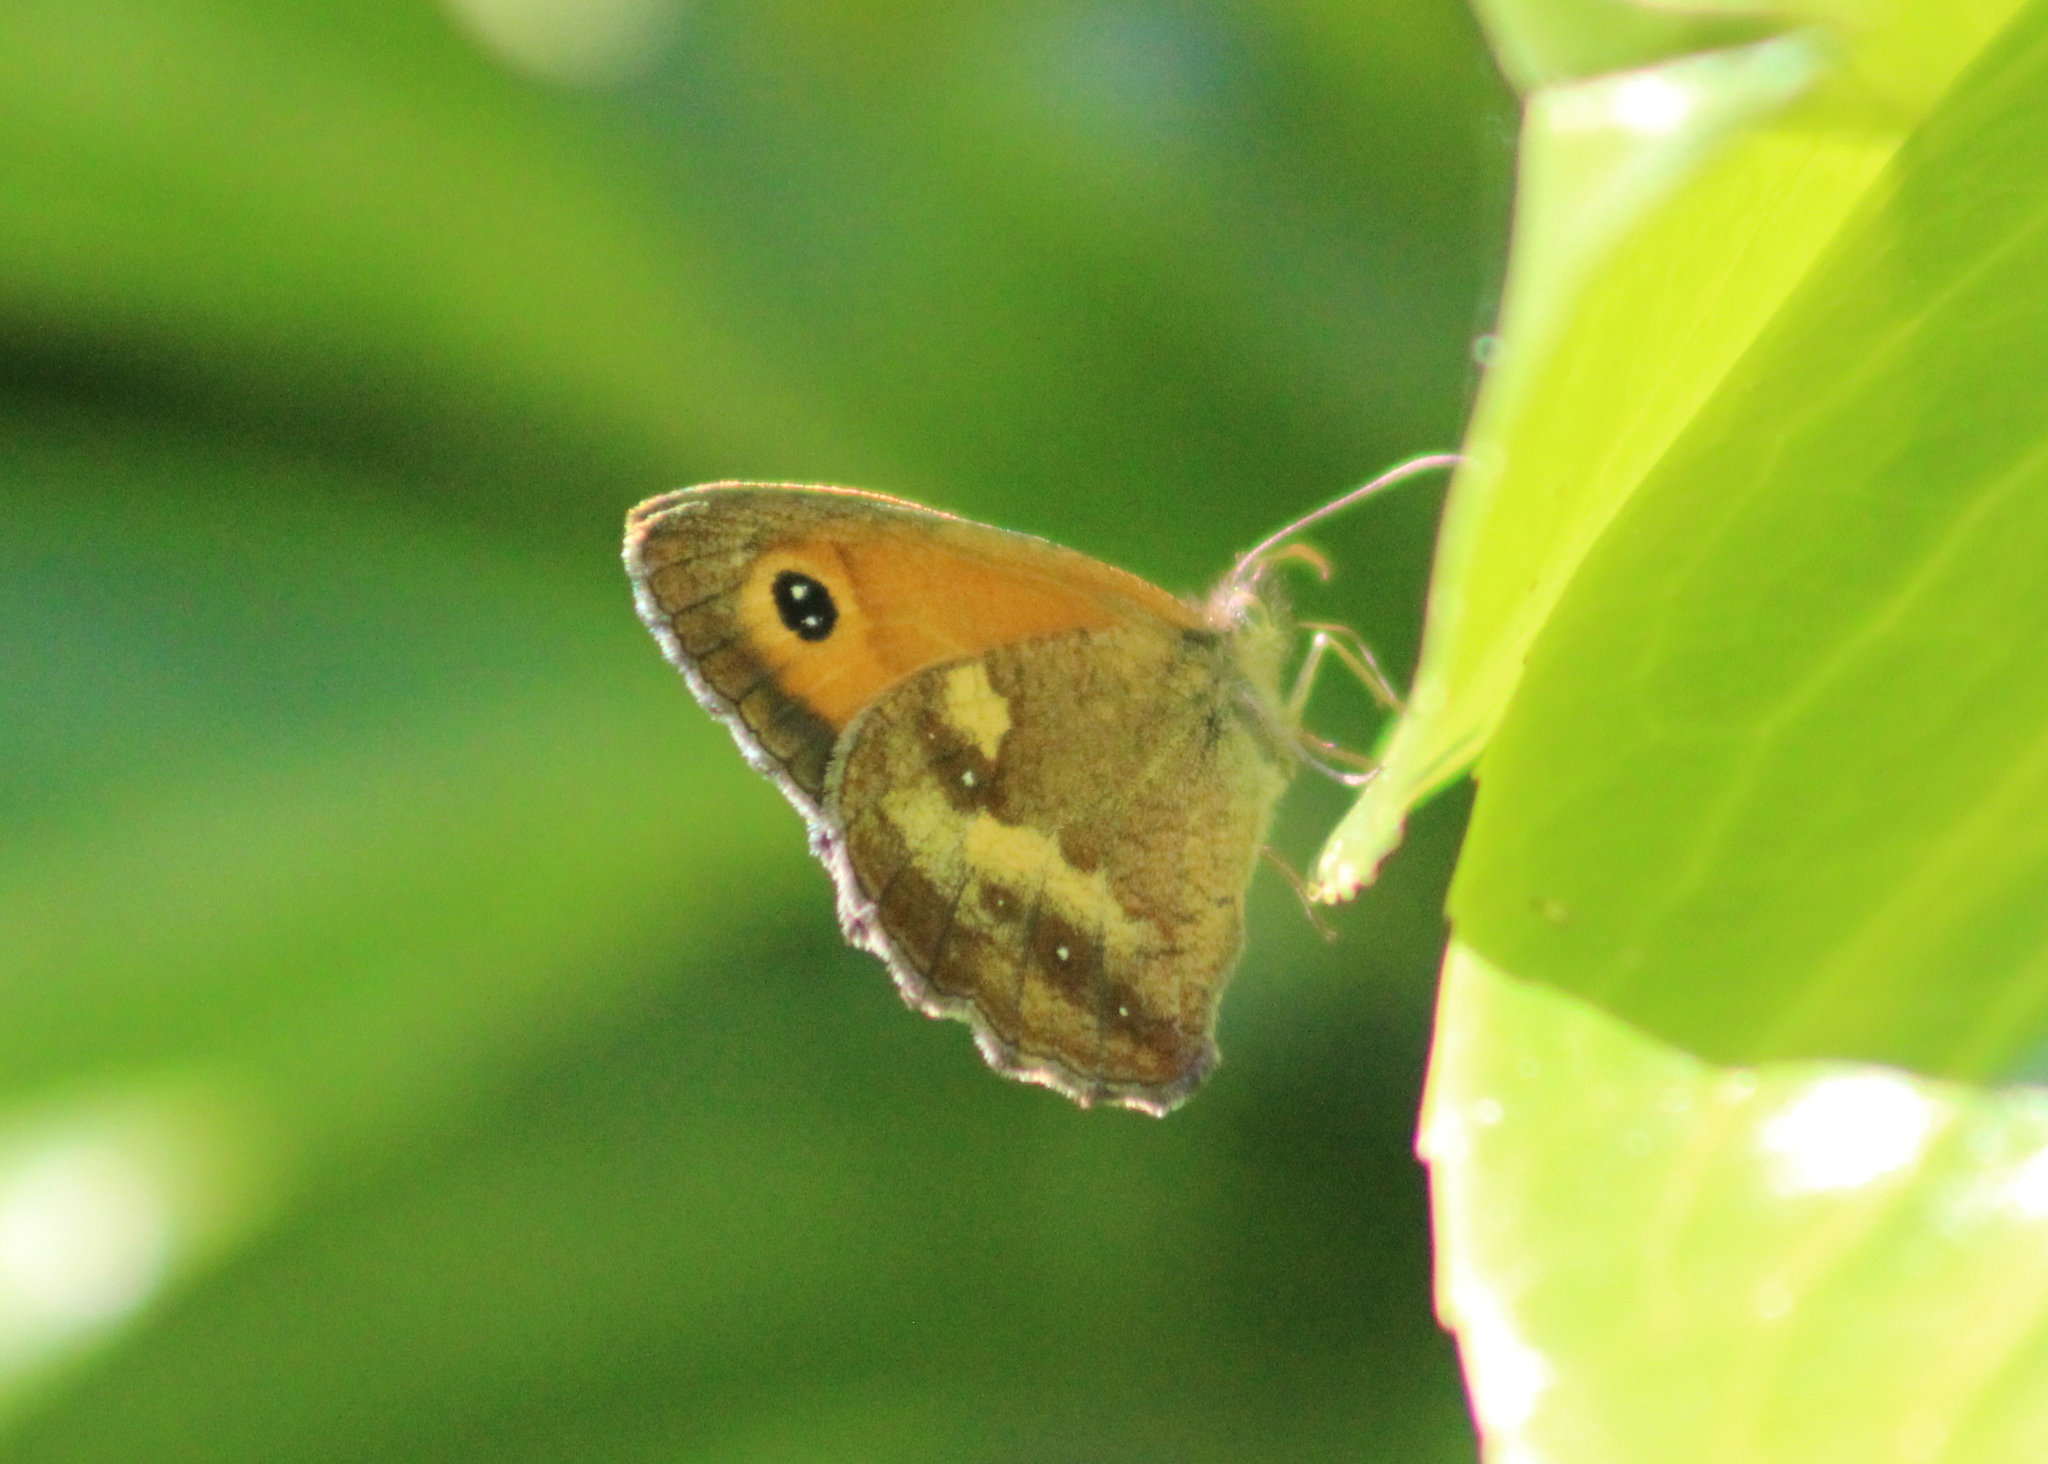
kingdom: Animalia
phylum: Arthropoda
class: Insecta
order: Lepidoptera
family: Nymphalidae
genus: Pyronia
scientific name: Pyronia tithonus
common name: Gatekeeper
